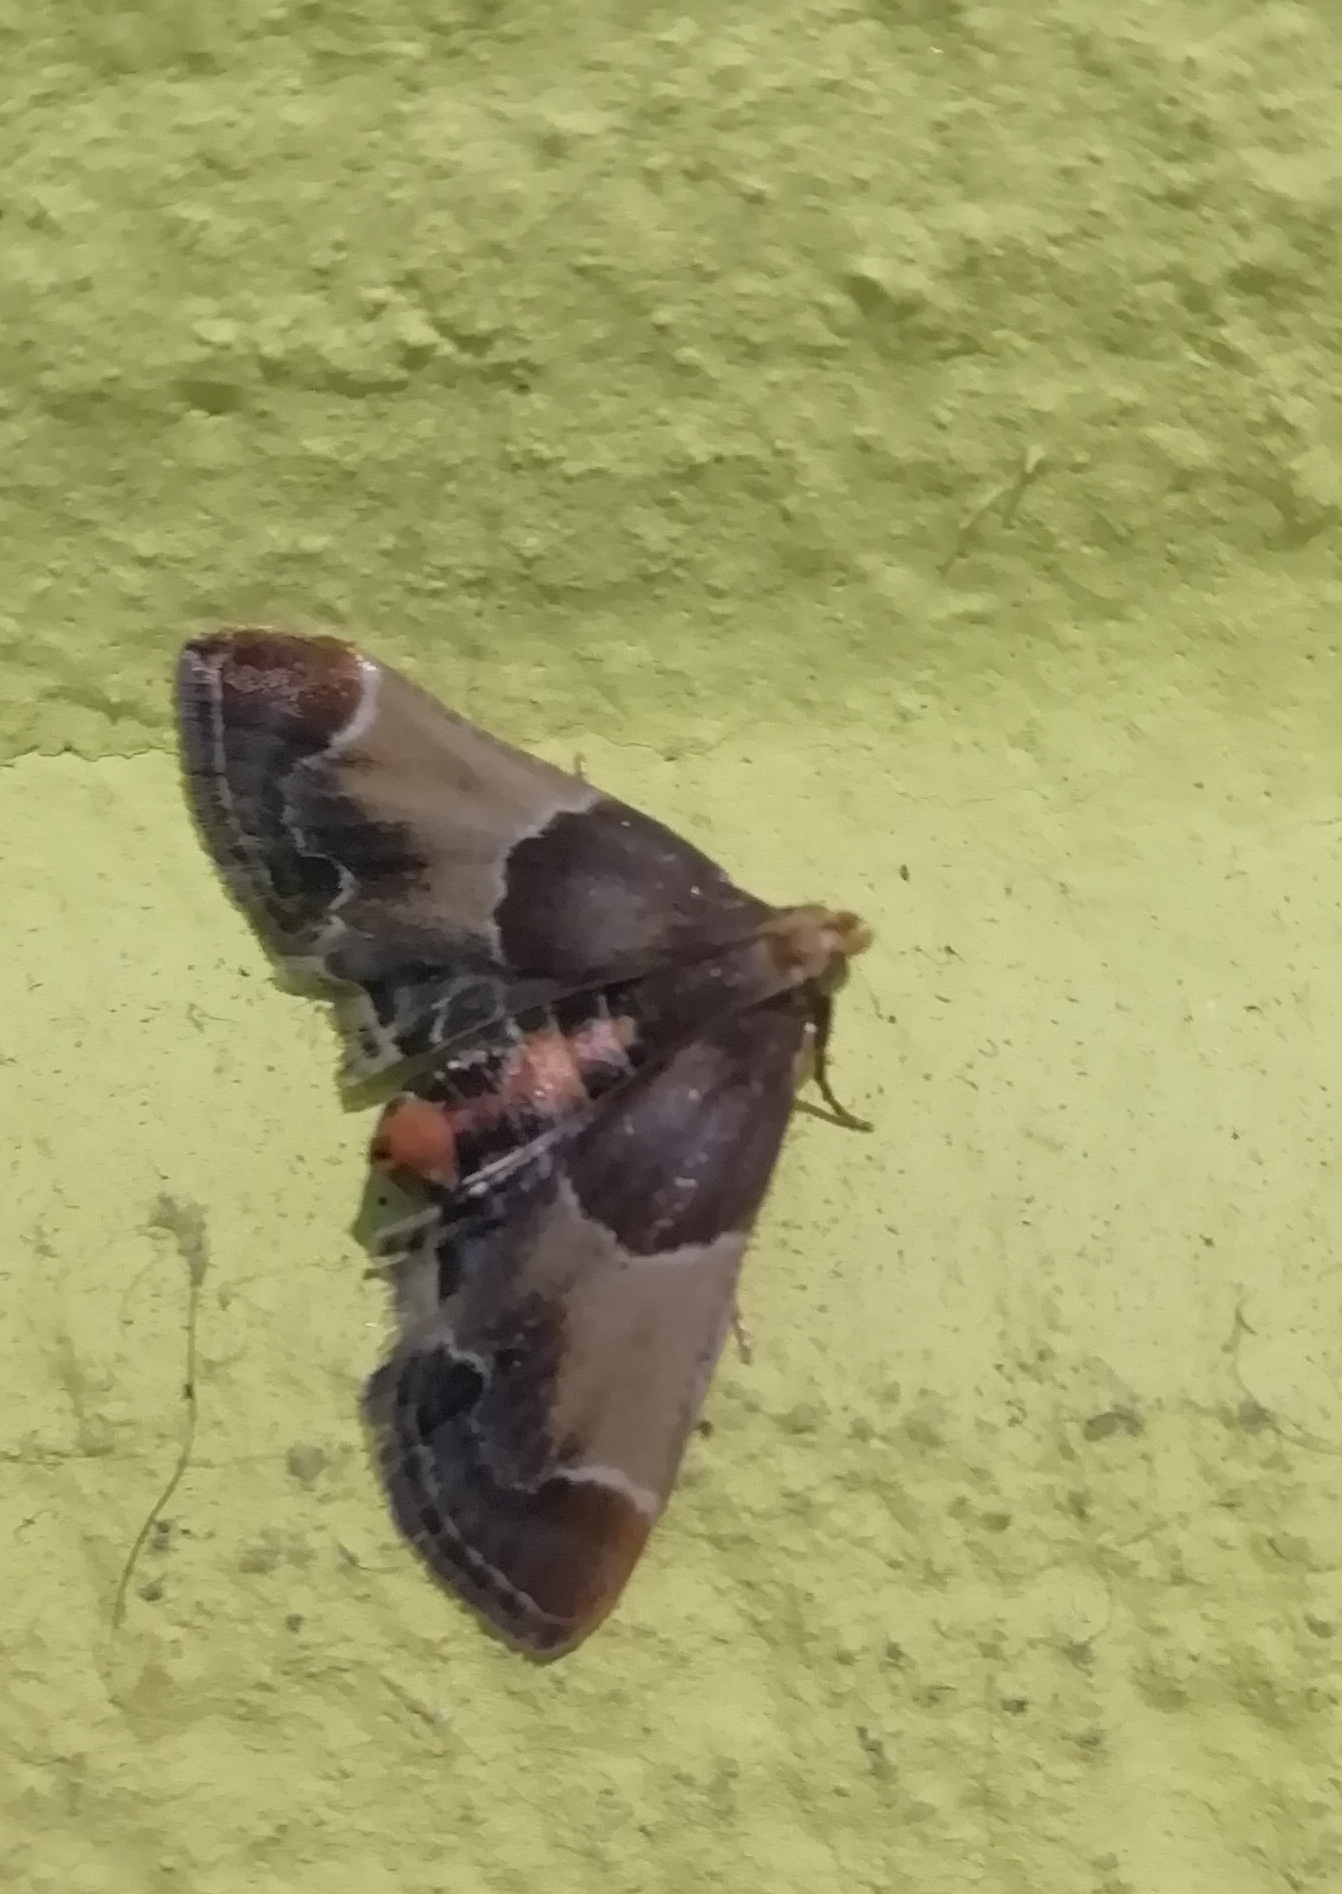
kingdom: Animalia
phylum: Arthropoda
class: Insecta
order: Lepidoptera
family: Pyralidae
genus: Pyralis
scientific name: Pyralis farinalis
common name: Meal moth
